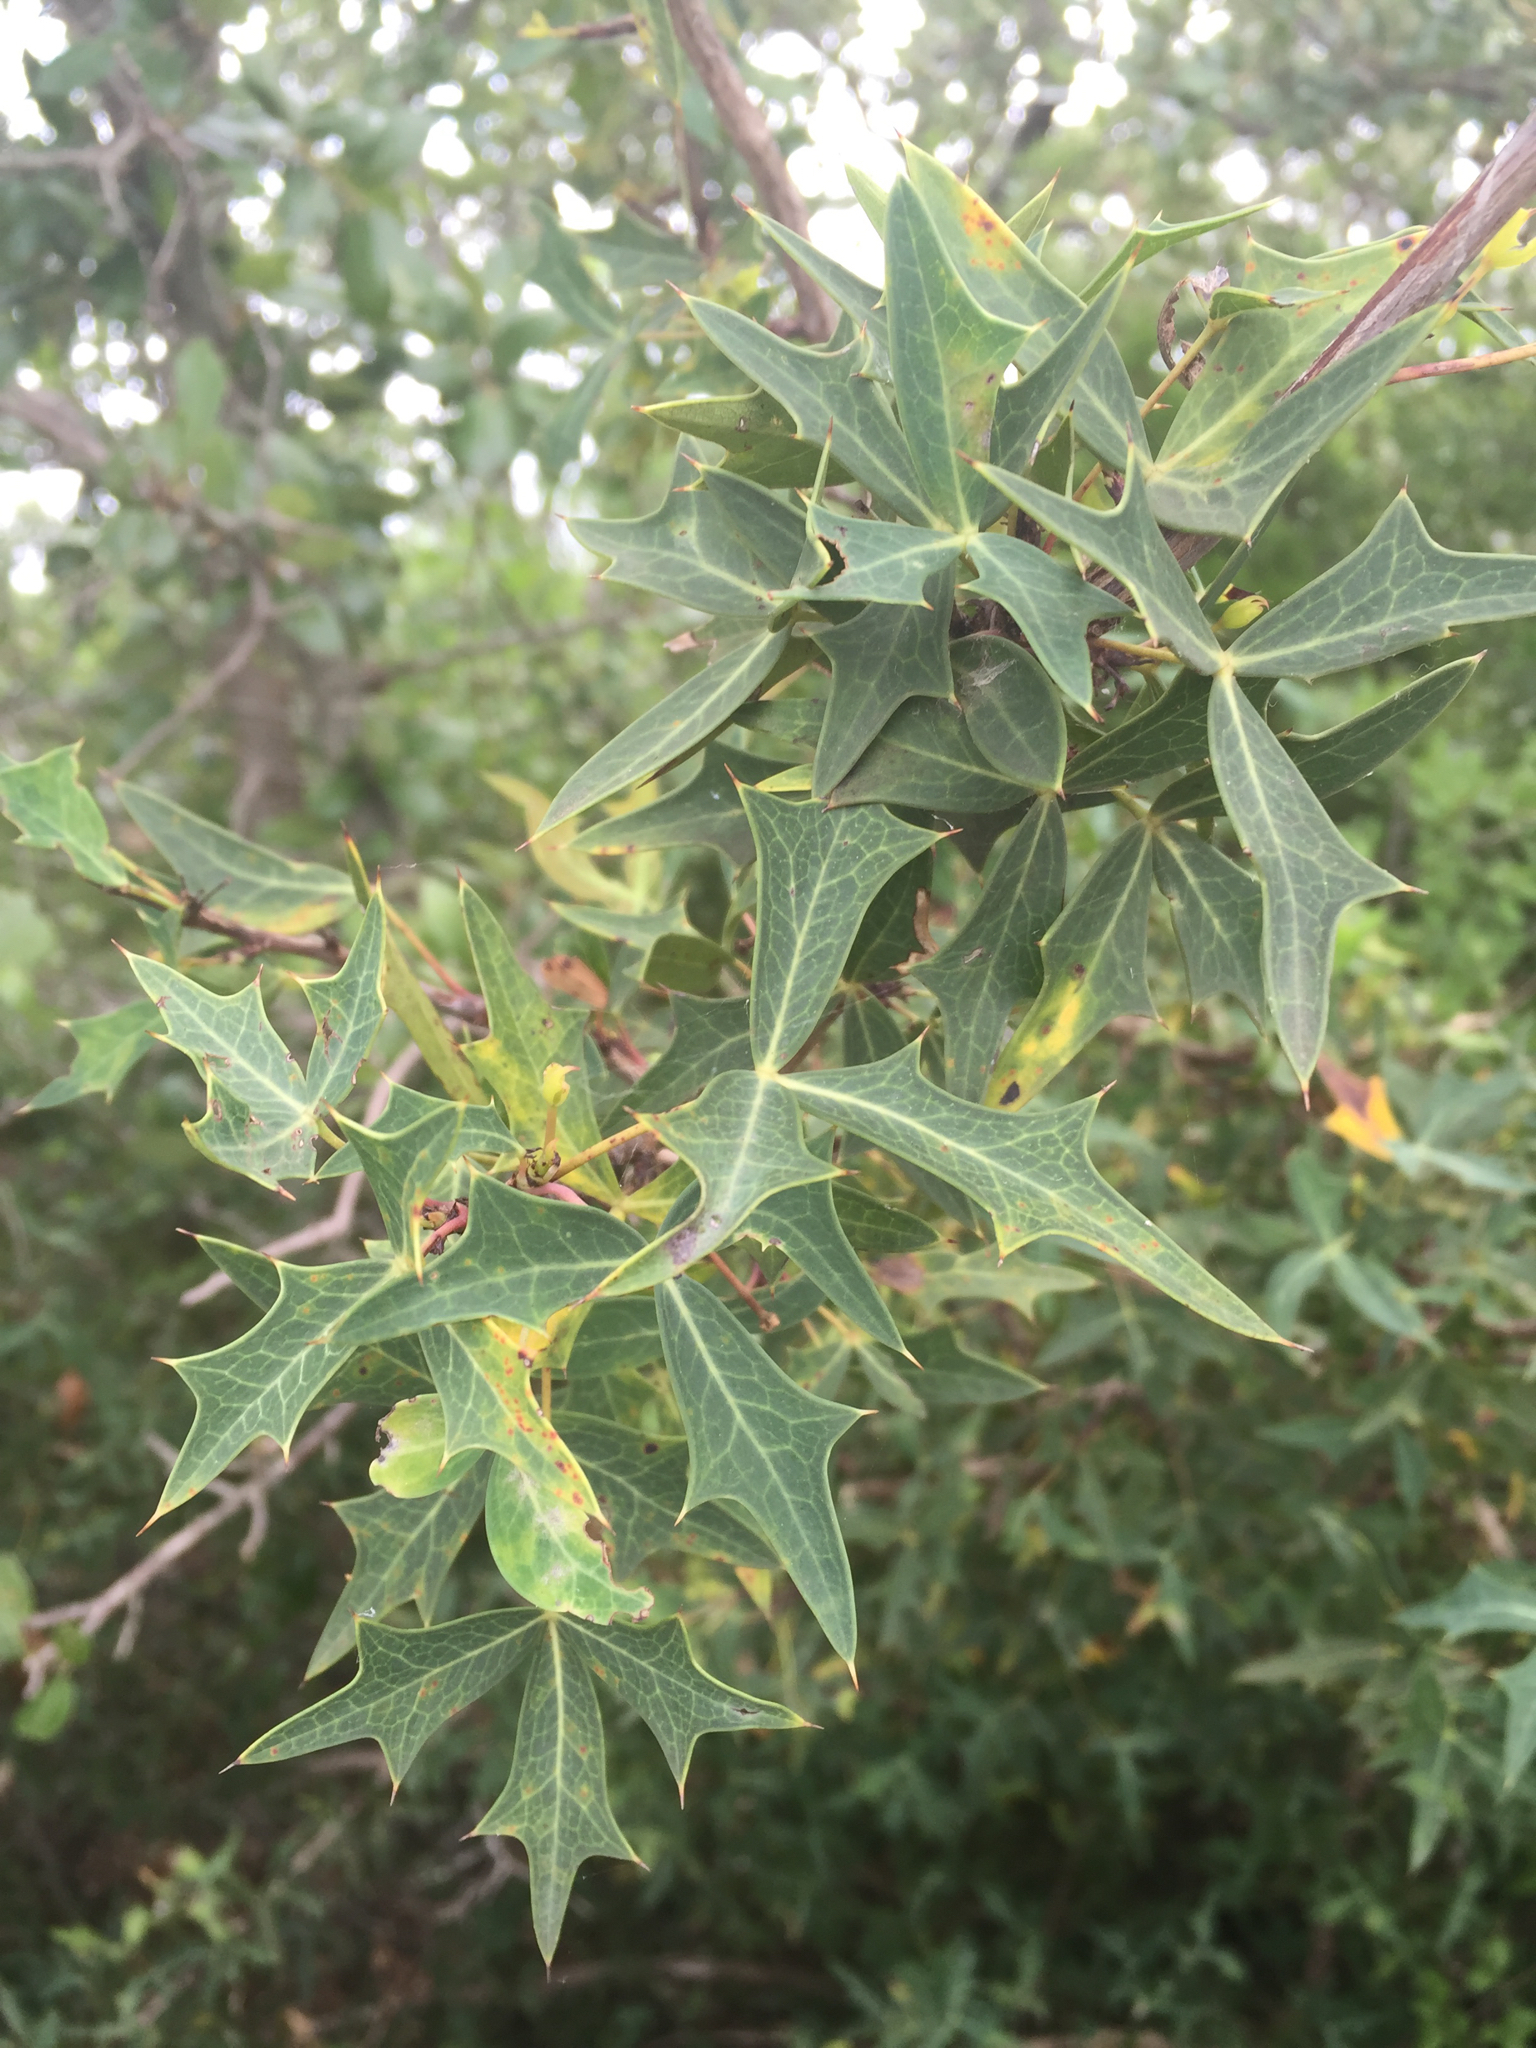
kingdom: Plantae
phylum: Tracheophyta
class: Magnoliopsida
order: Ranunculales
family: Berberidaceae
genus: Alloberberis
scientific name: Alloberberis trifoliolata
